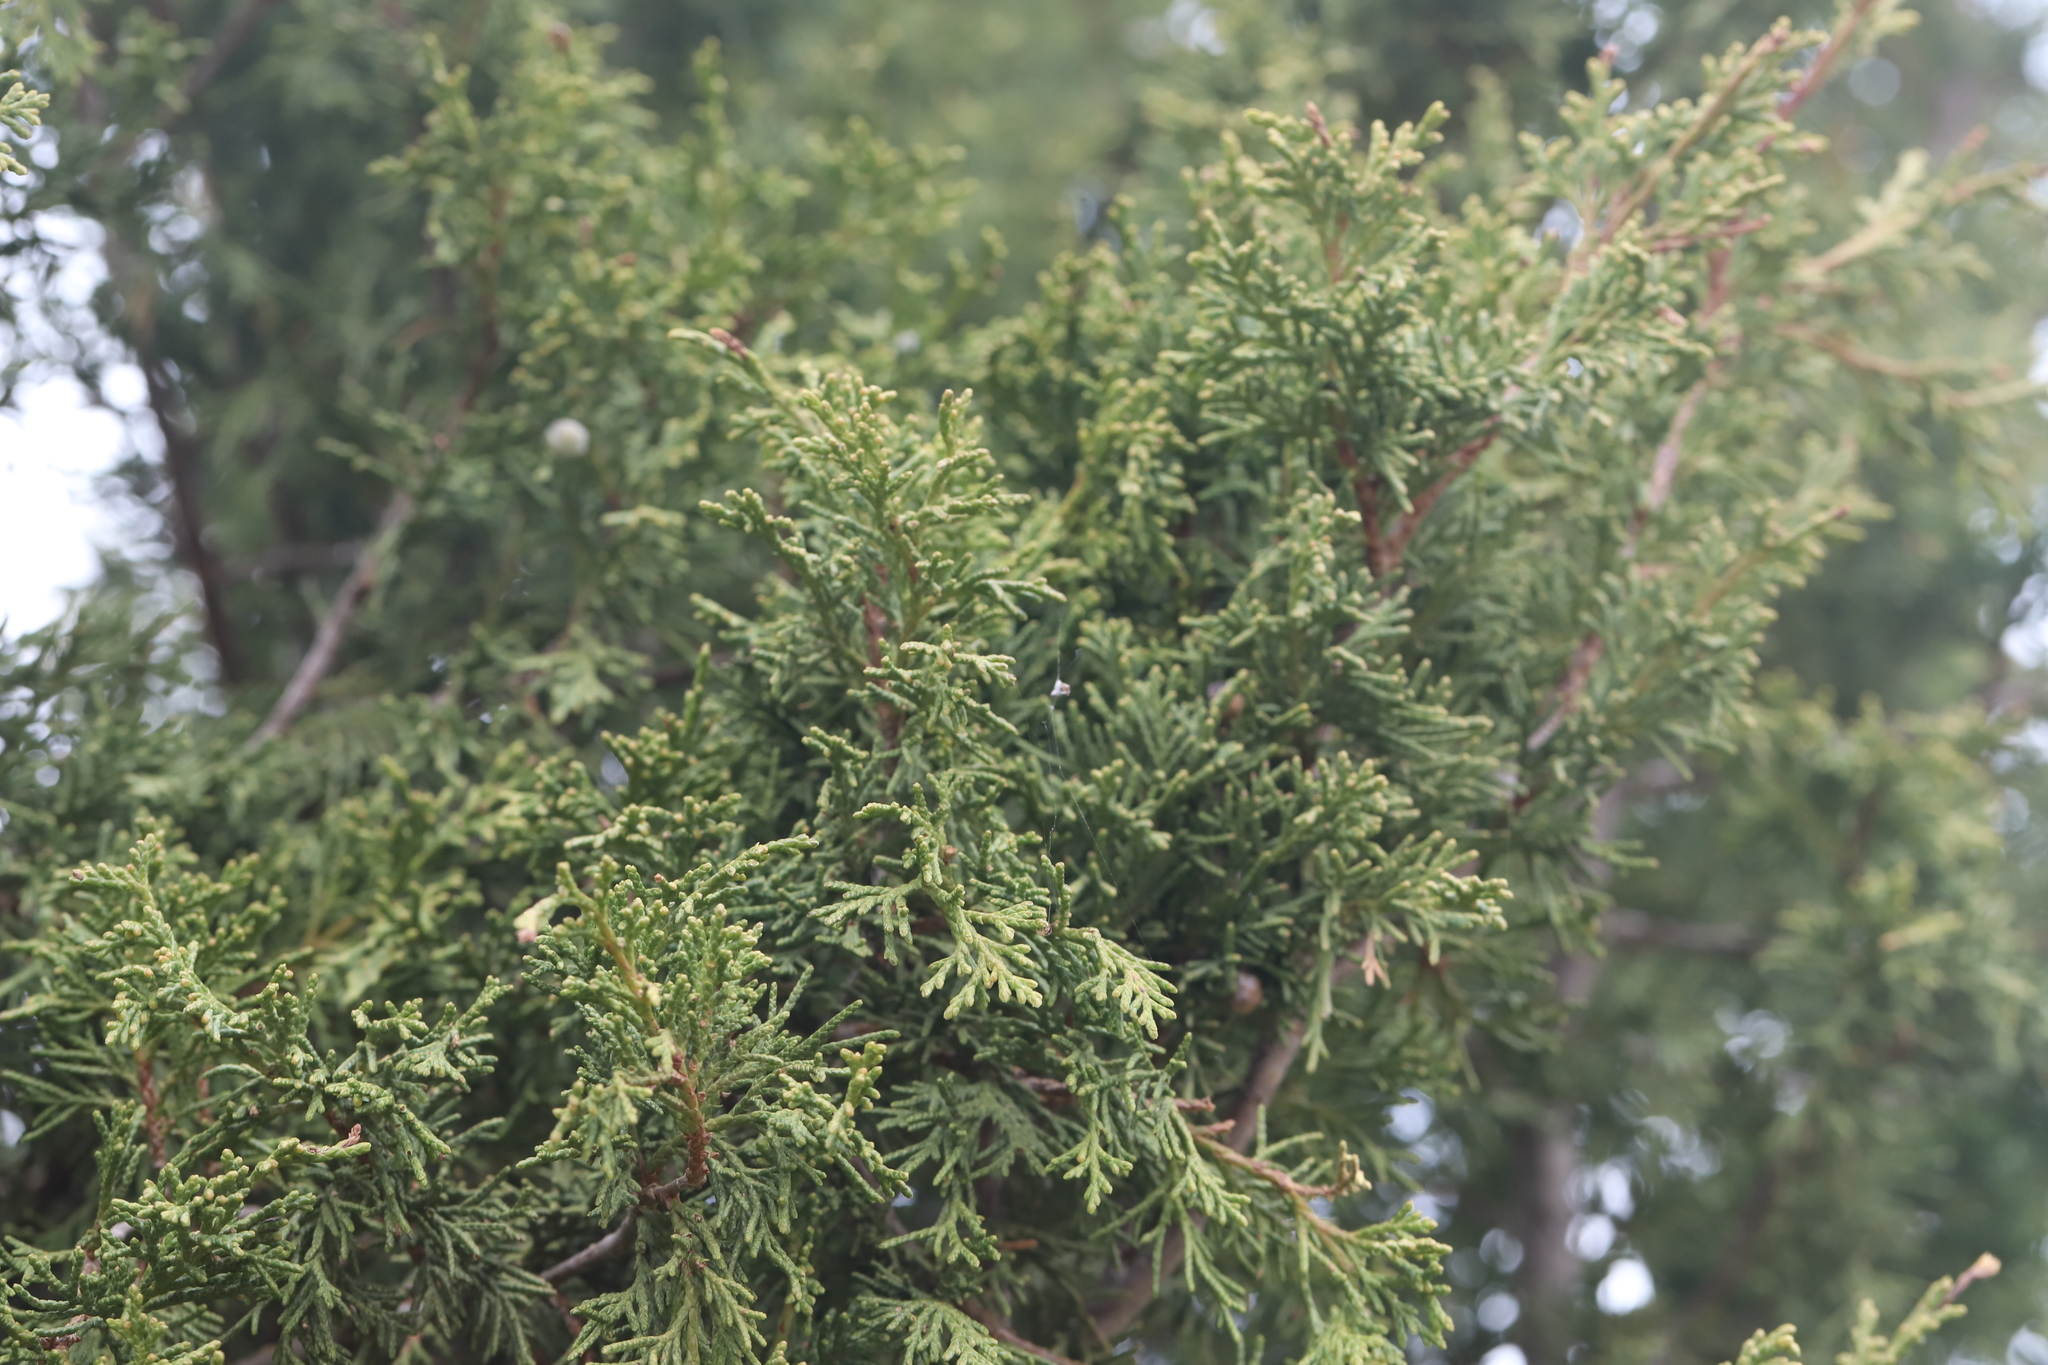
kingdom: Plantae
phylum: Tracheophyta
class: Pinopsida
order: Pinales
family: Cupressaceae
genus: Juniperus
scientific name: Juniperus scopulorum
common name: Rocky mountain juniper
